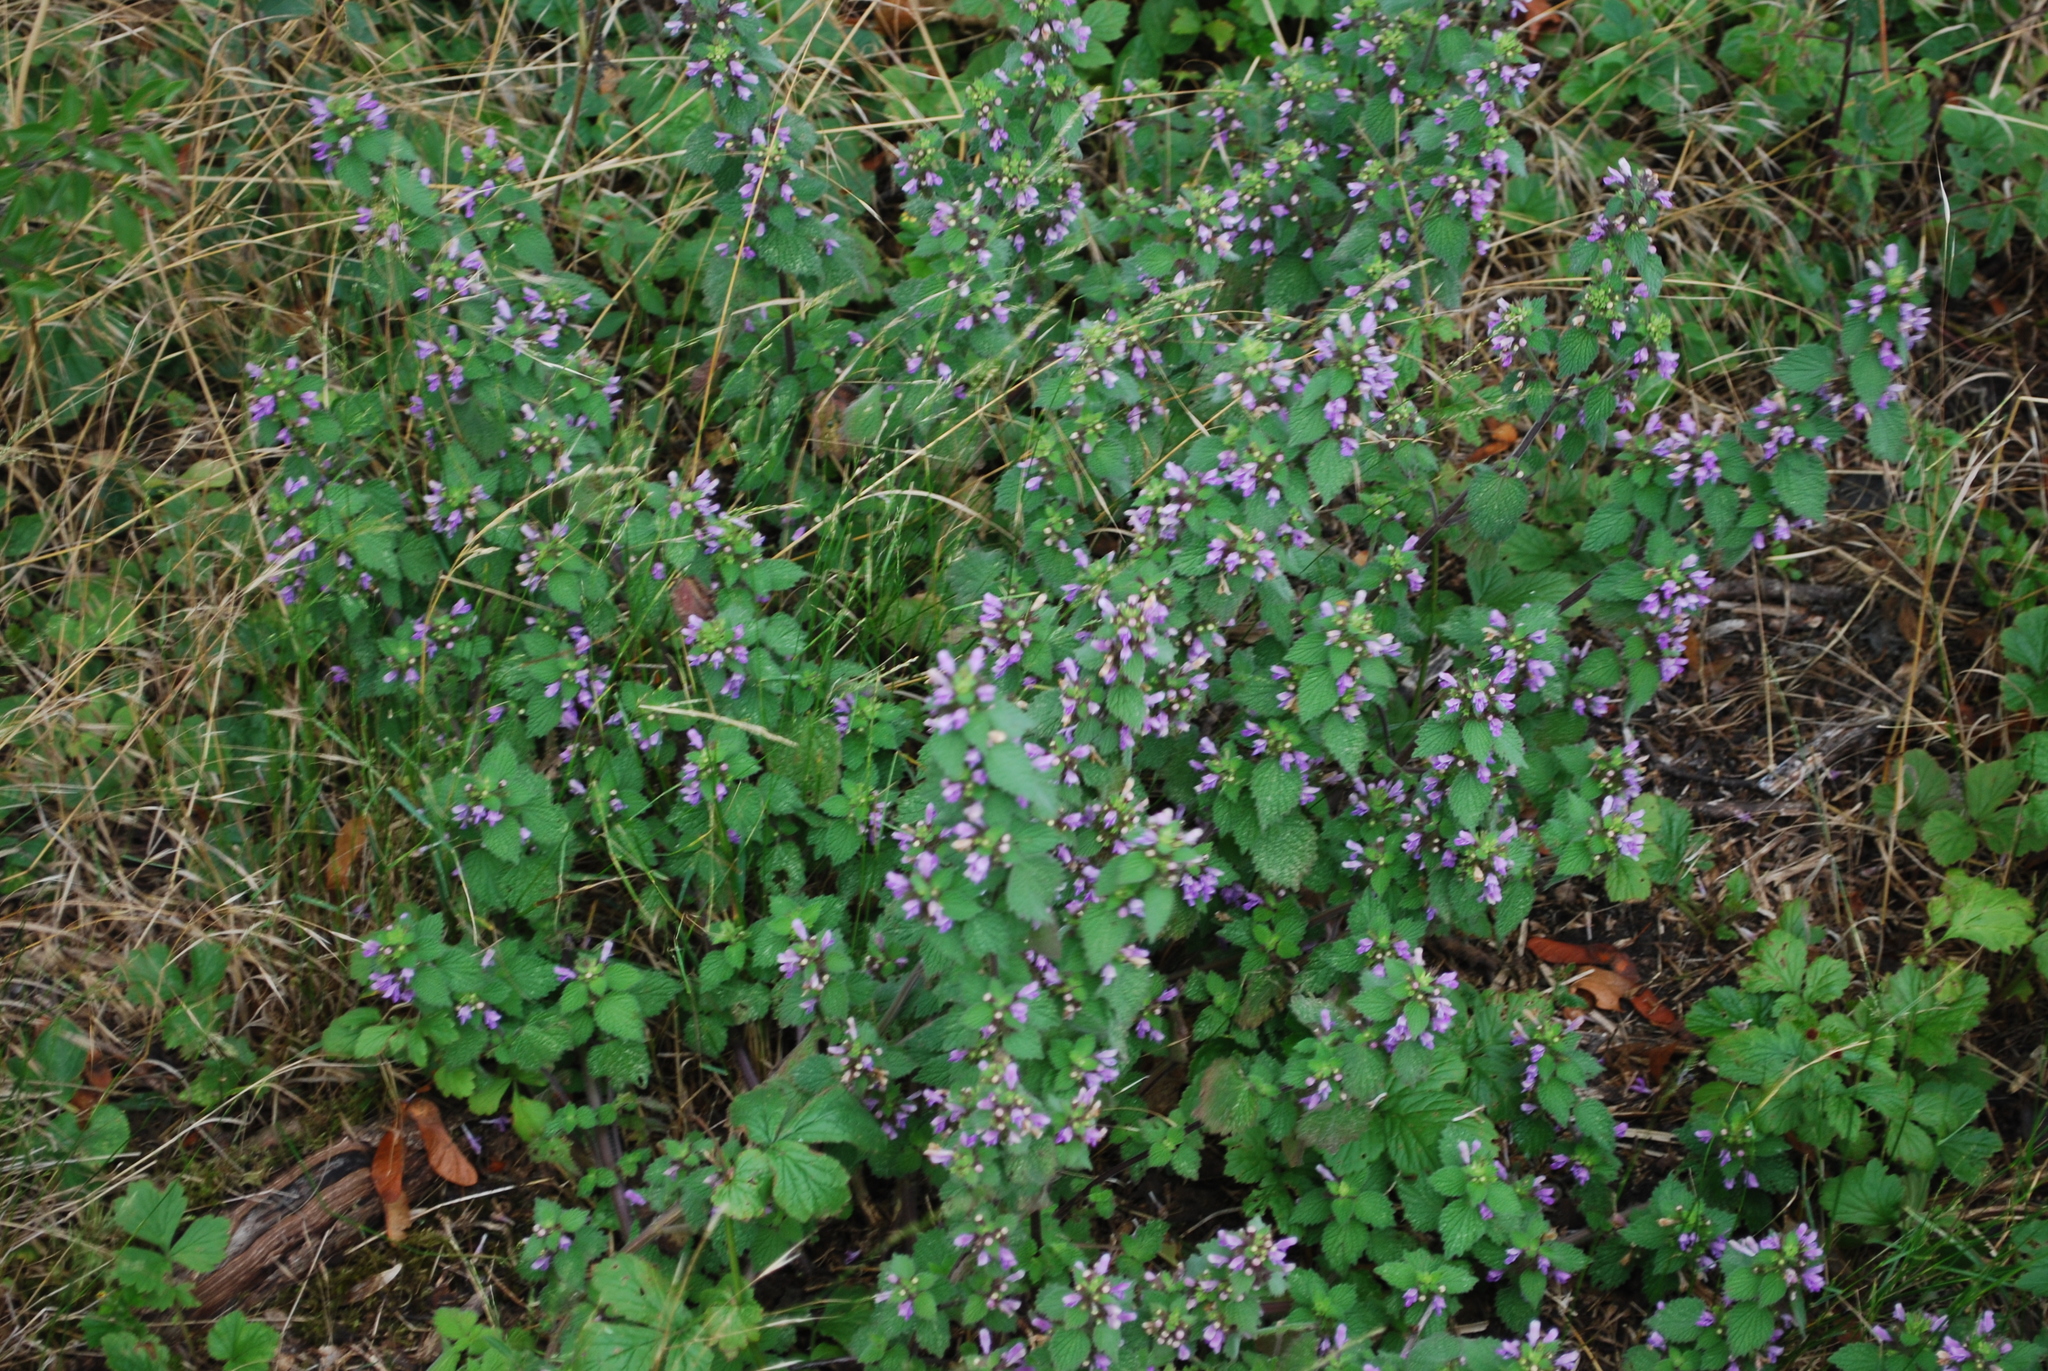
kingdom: Plantae
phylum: Tracheophyta
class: Magnoliopsida
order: Lamiales
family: Lamiaceae
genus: Ballota
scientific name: Ballota nigra
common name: Black horehound
